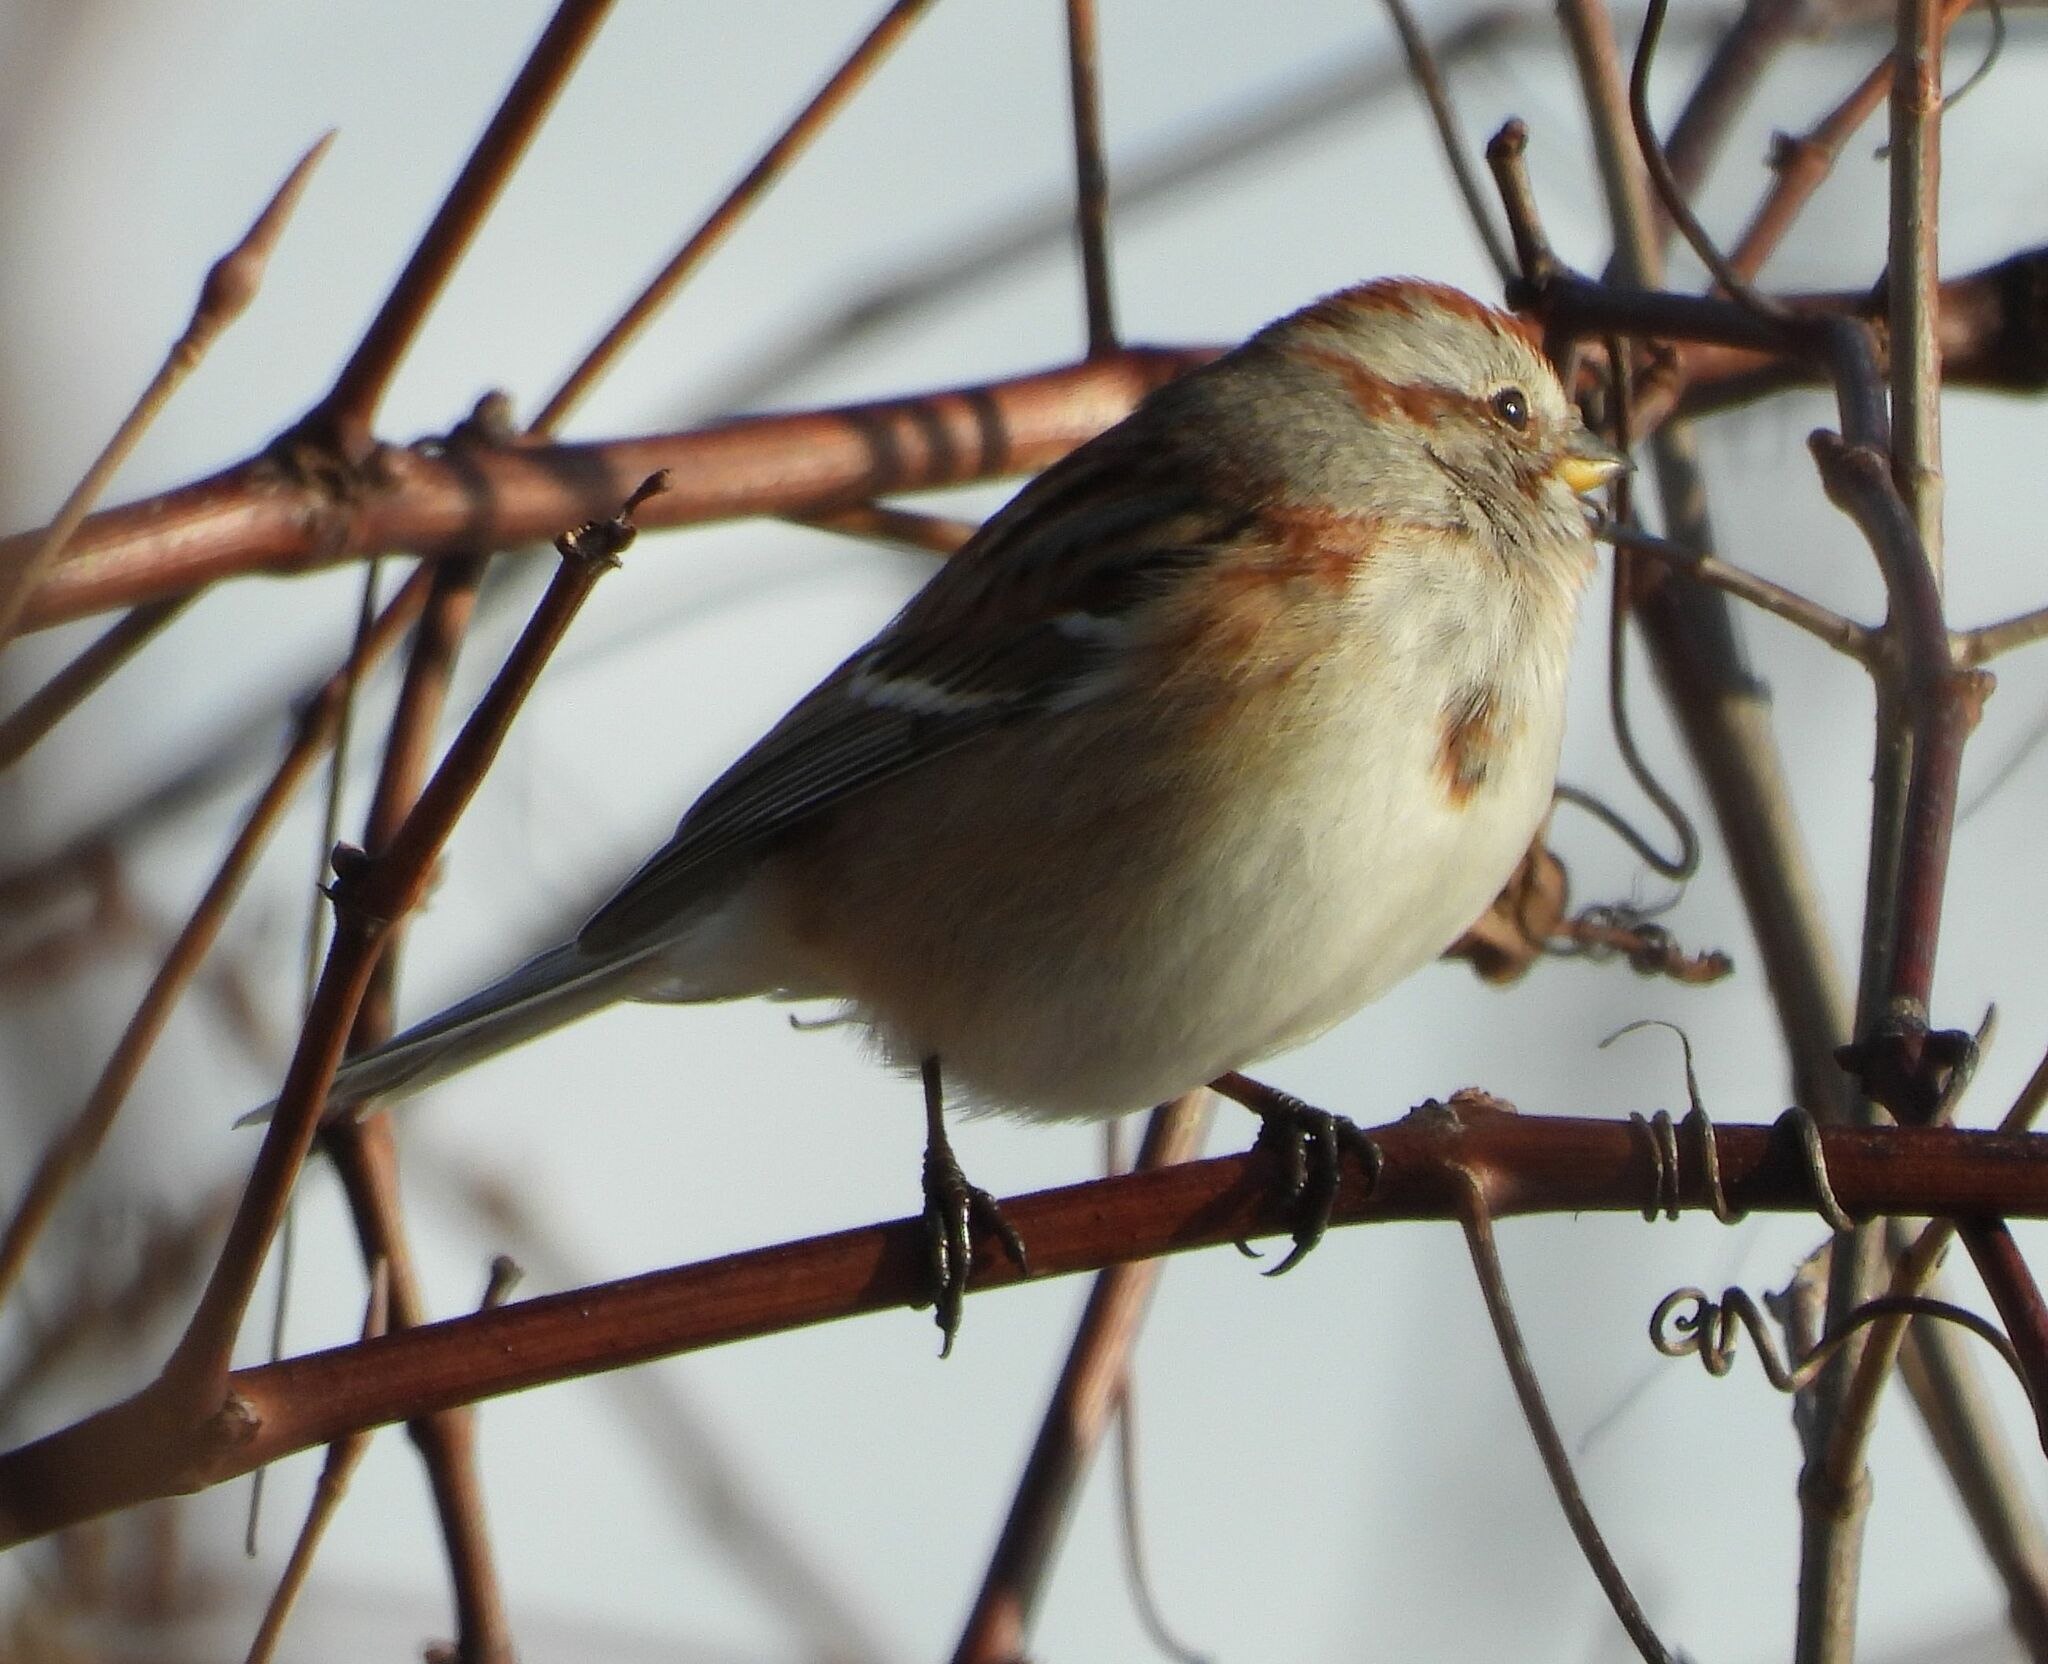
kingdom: Animalia
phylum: Chordata
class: Aves
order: Passeriformes
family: Passerellidae
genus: Spizelloides
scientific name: Spizelloides arborea
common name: American tree sparrow
